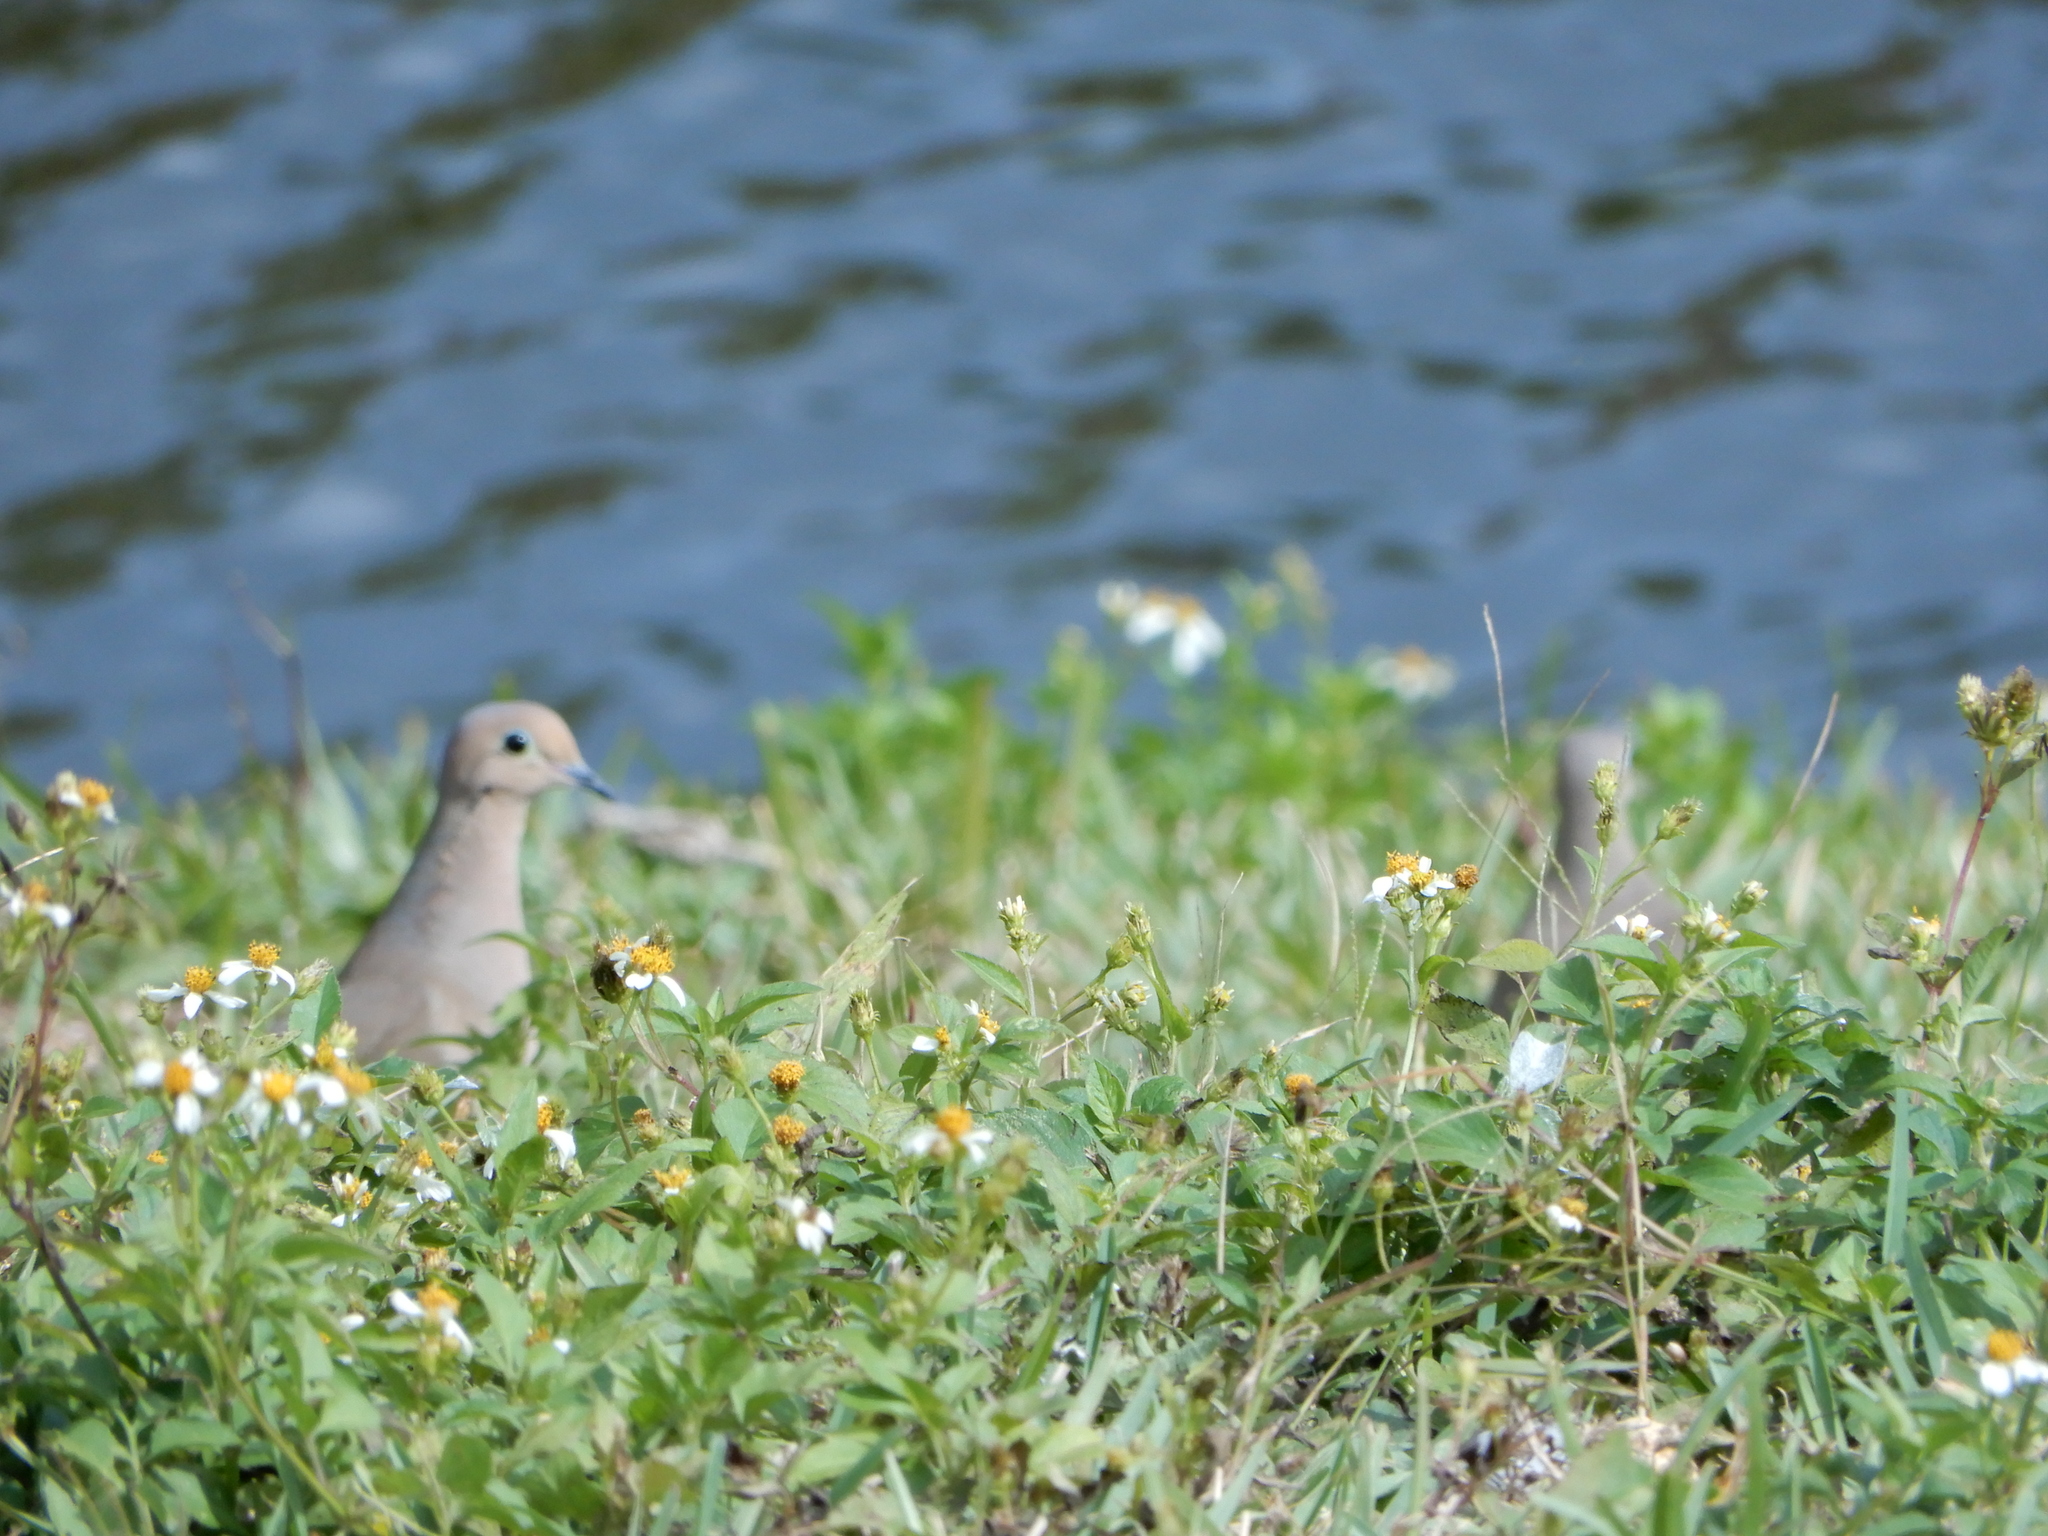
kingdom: Animalia
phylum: Chordata
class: Aves
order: Columbiformes
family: Columbidae
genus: Zenaida
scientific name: Zenaida macroura
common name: Mourning dove
